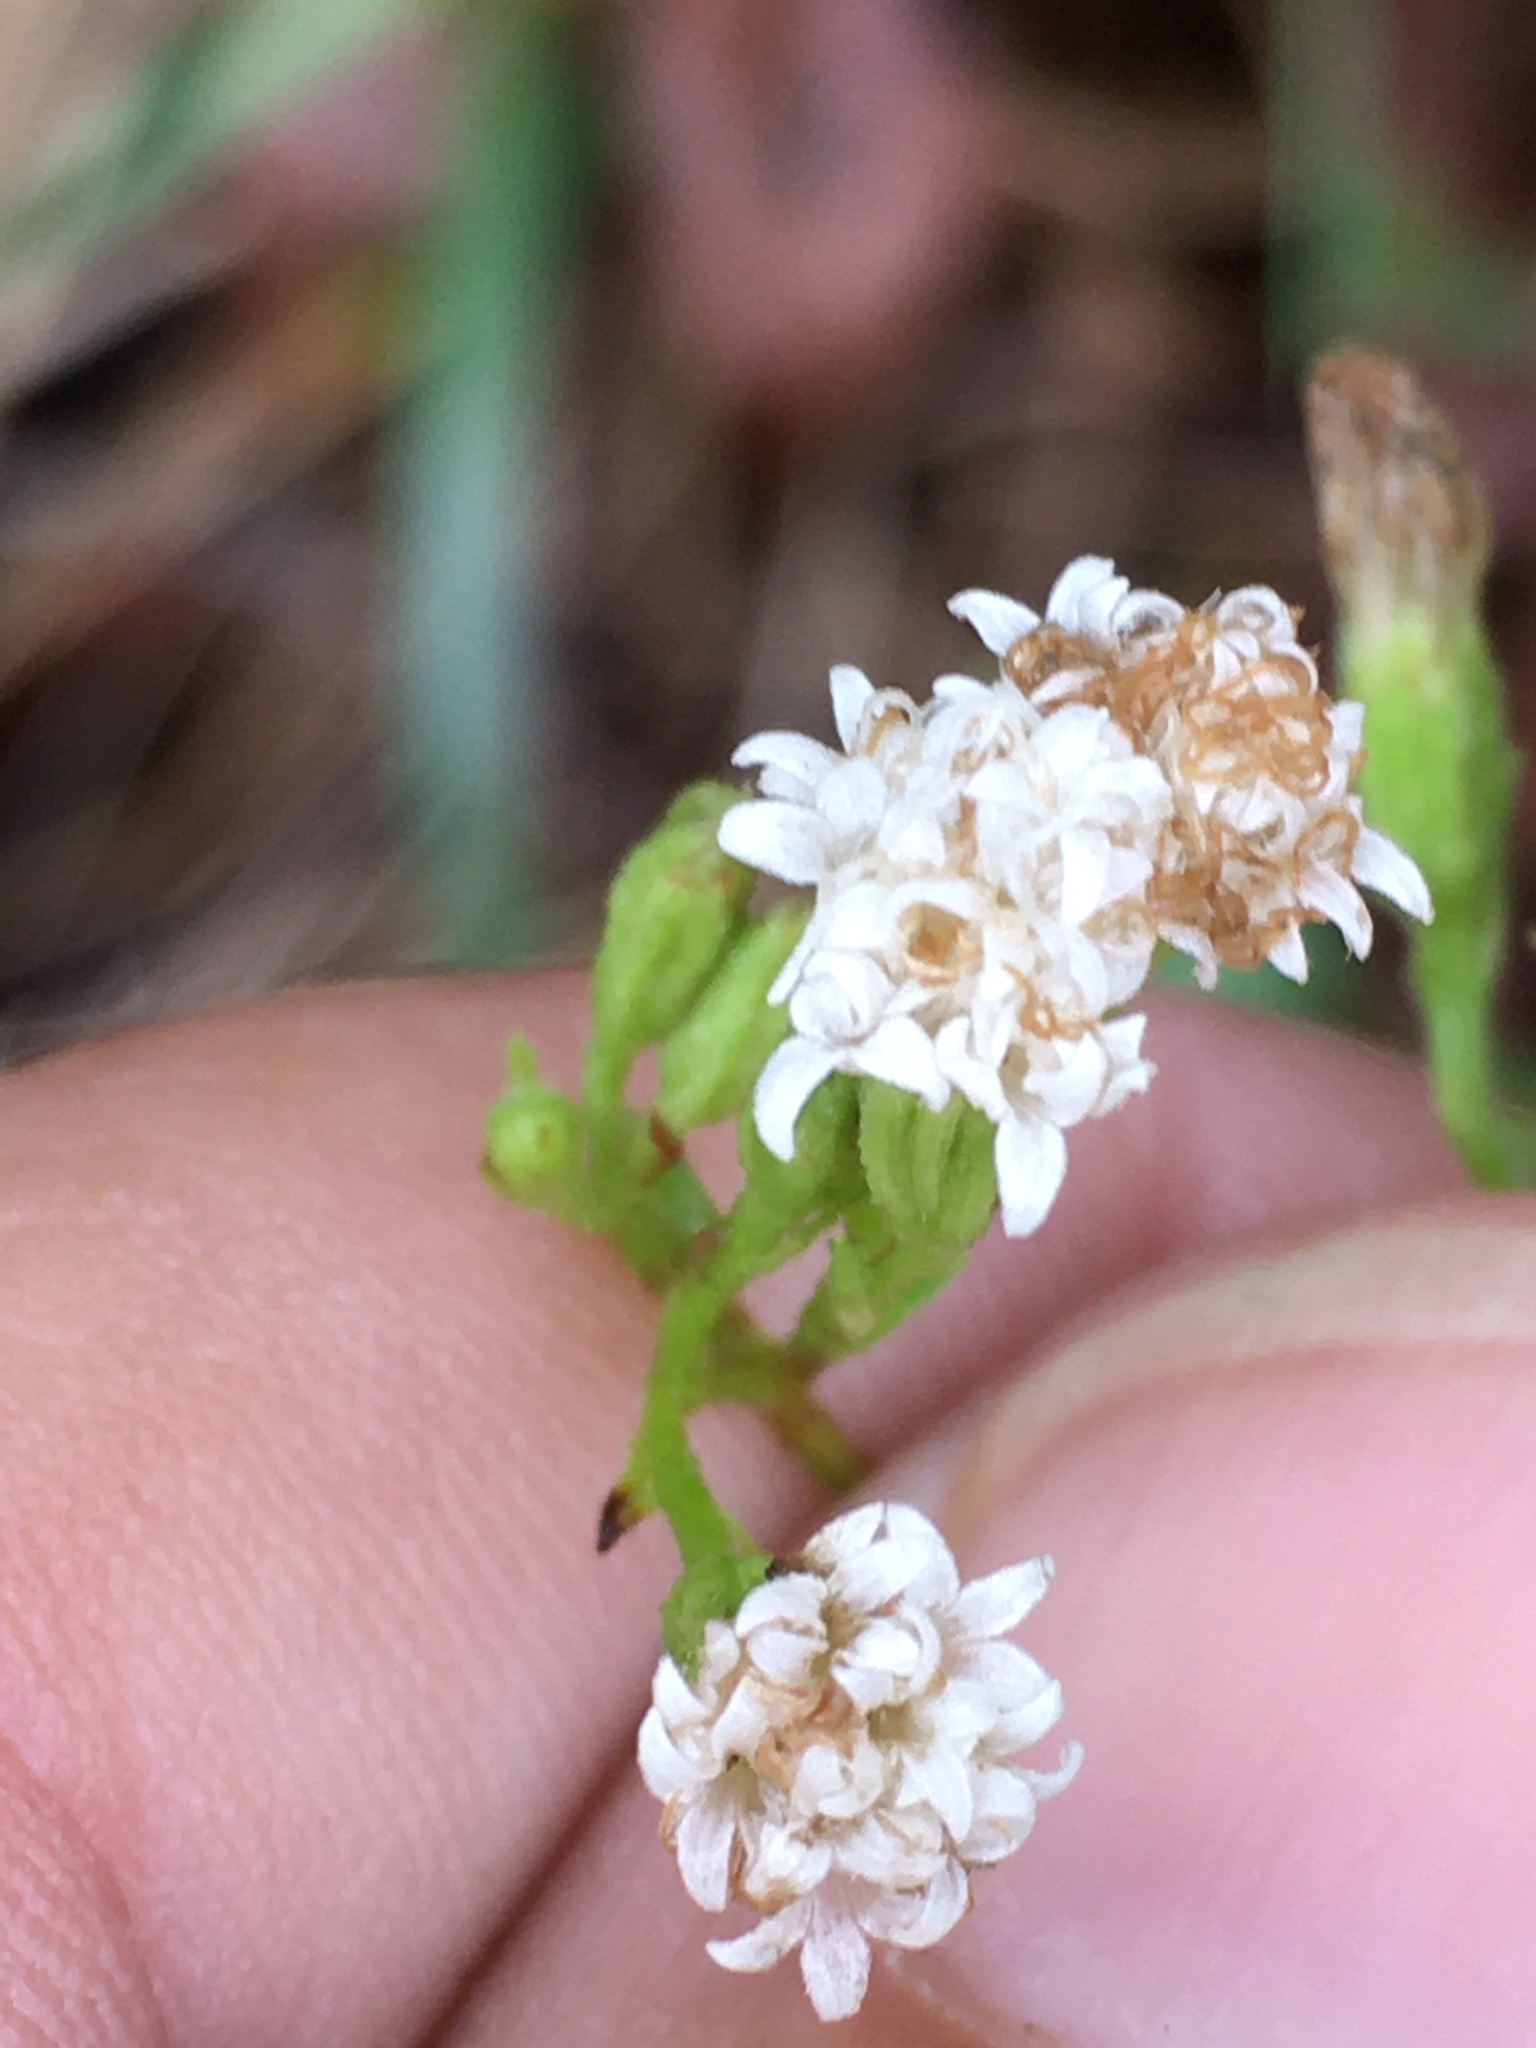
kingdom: Plantae
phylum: Tracheophyta
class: Magnoliopsida
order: Asterales
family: Asteraceae
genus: Ageratina
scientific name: Ageratina aromatica
